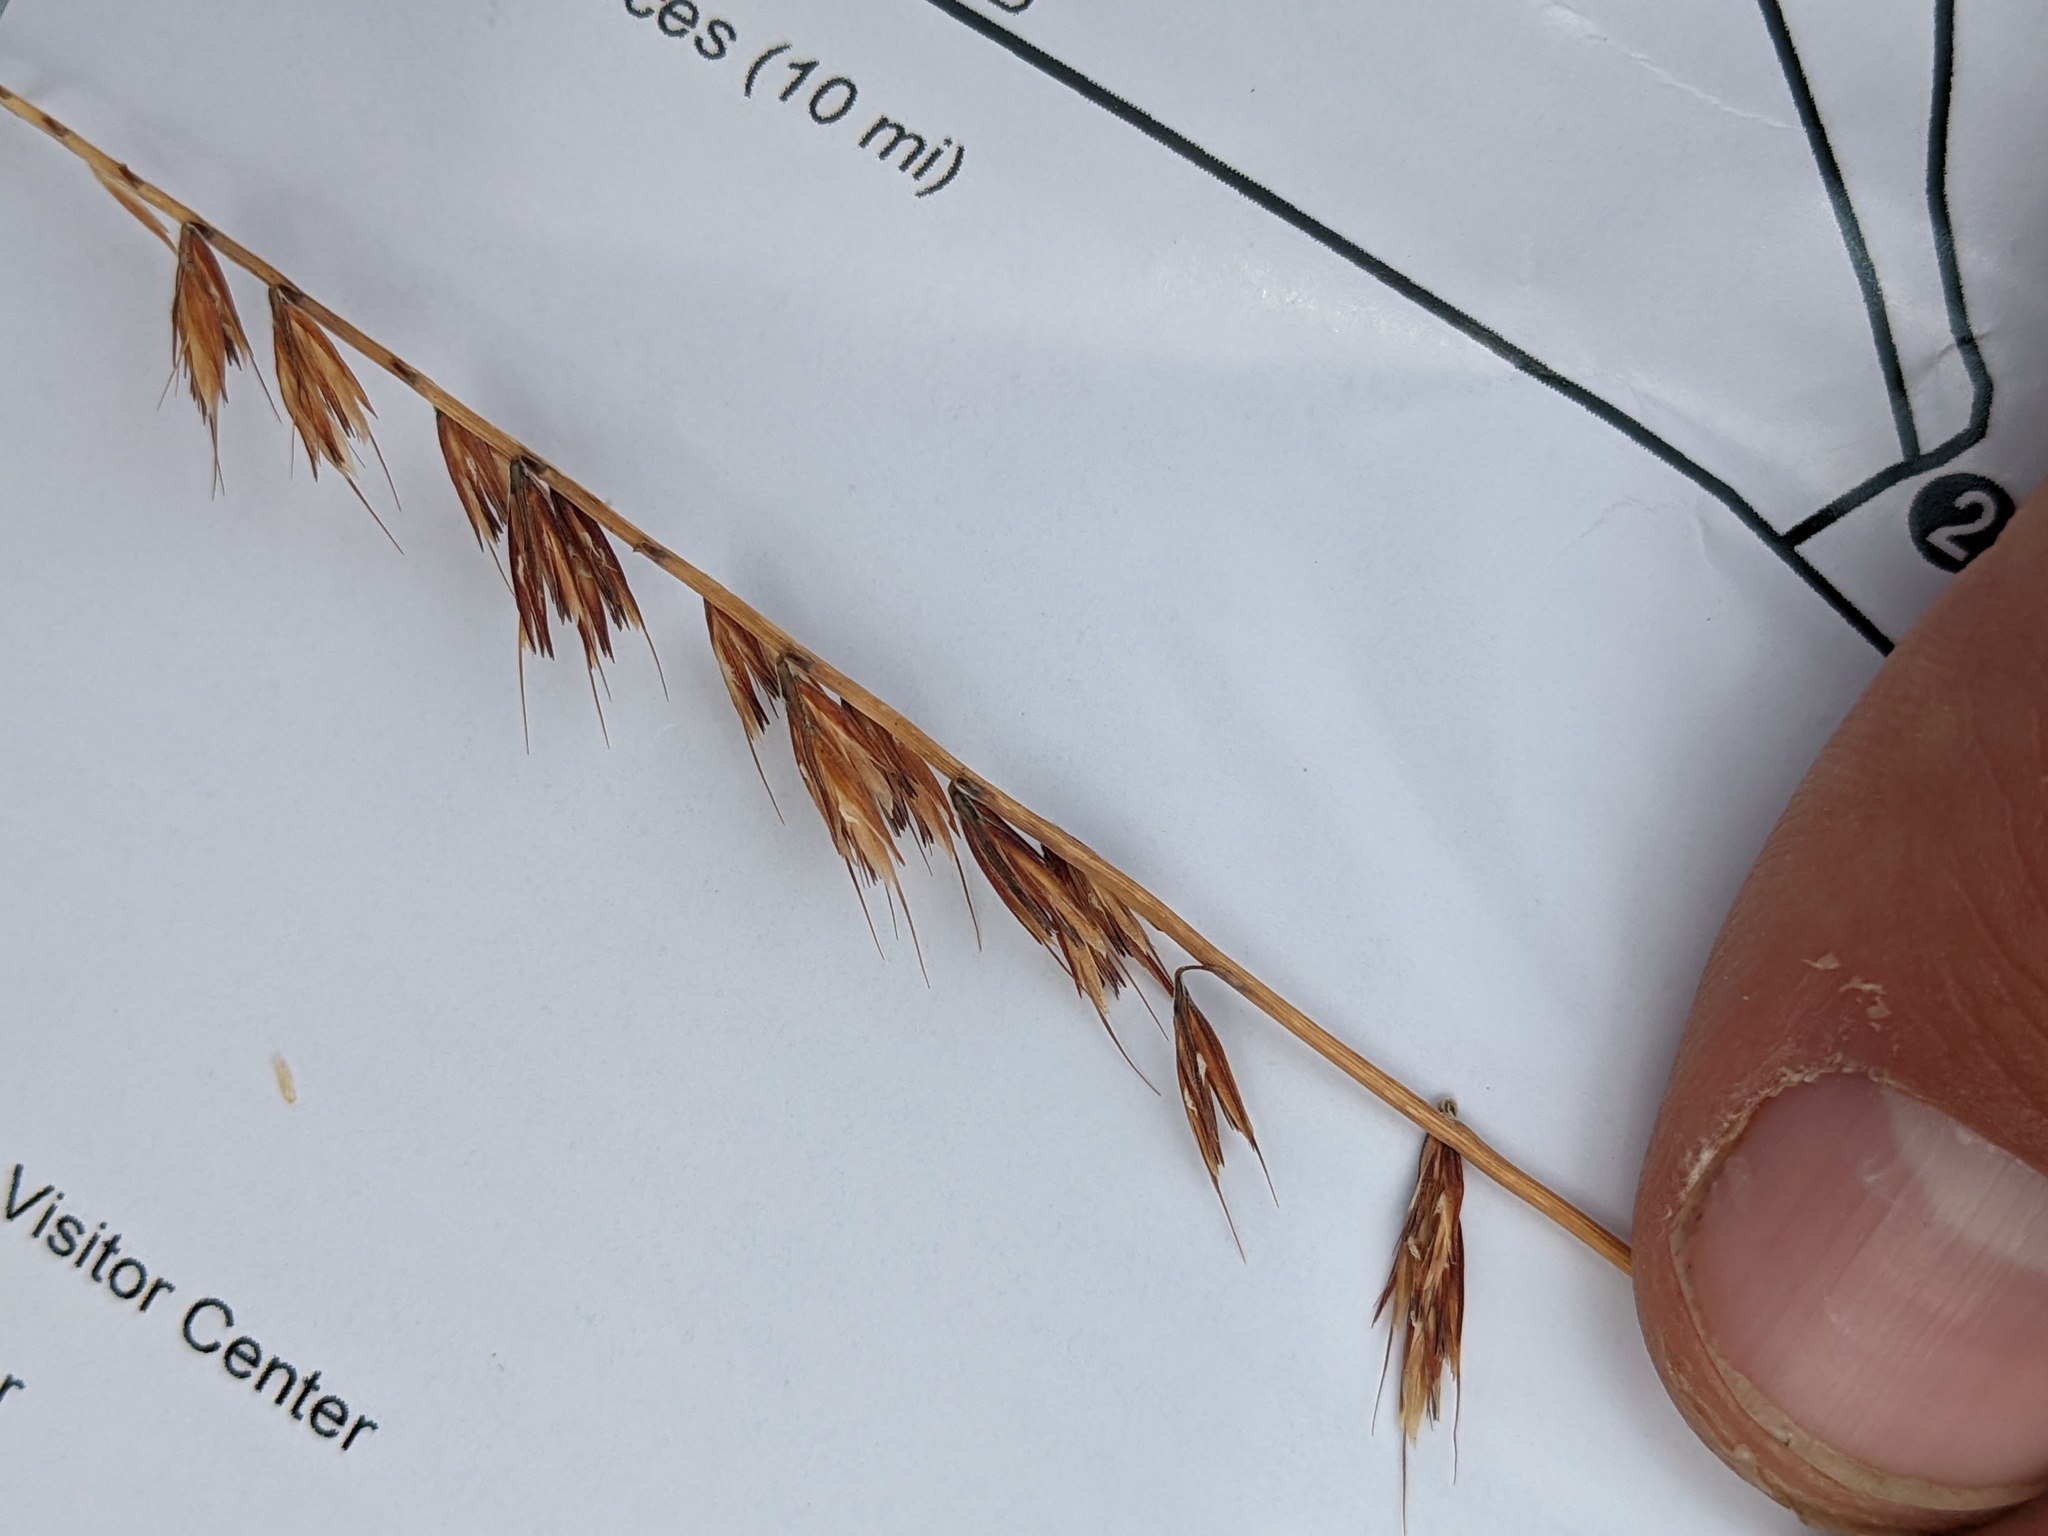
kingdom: Plantae
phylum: Tracheophyta
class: Liliopsida
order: Poales
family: Poaceae
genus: Bouteloua
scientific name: Bouteloua curtipendula
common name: Side-oats grama
